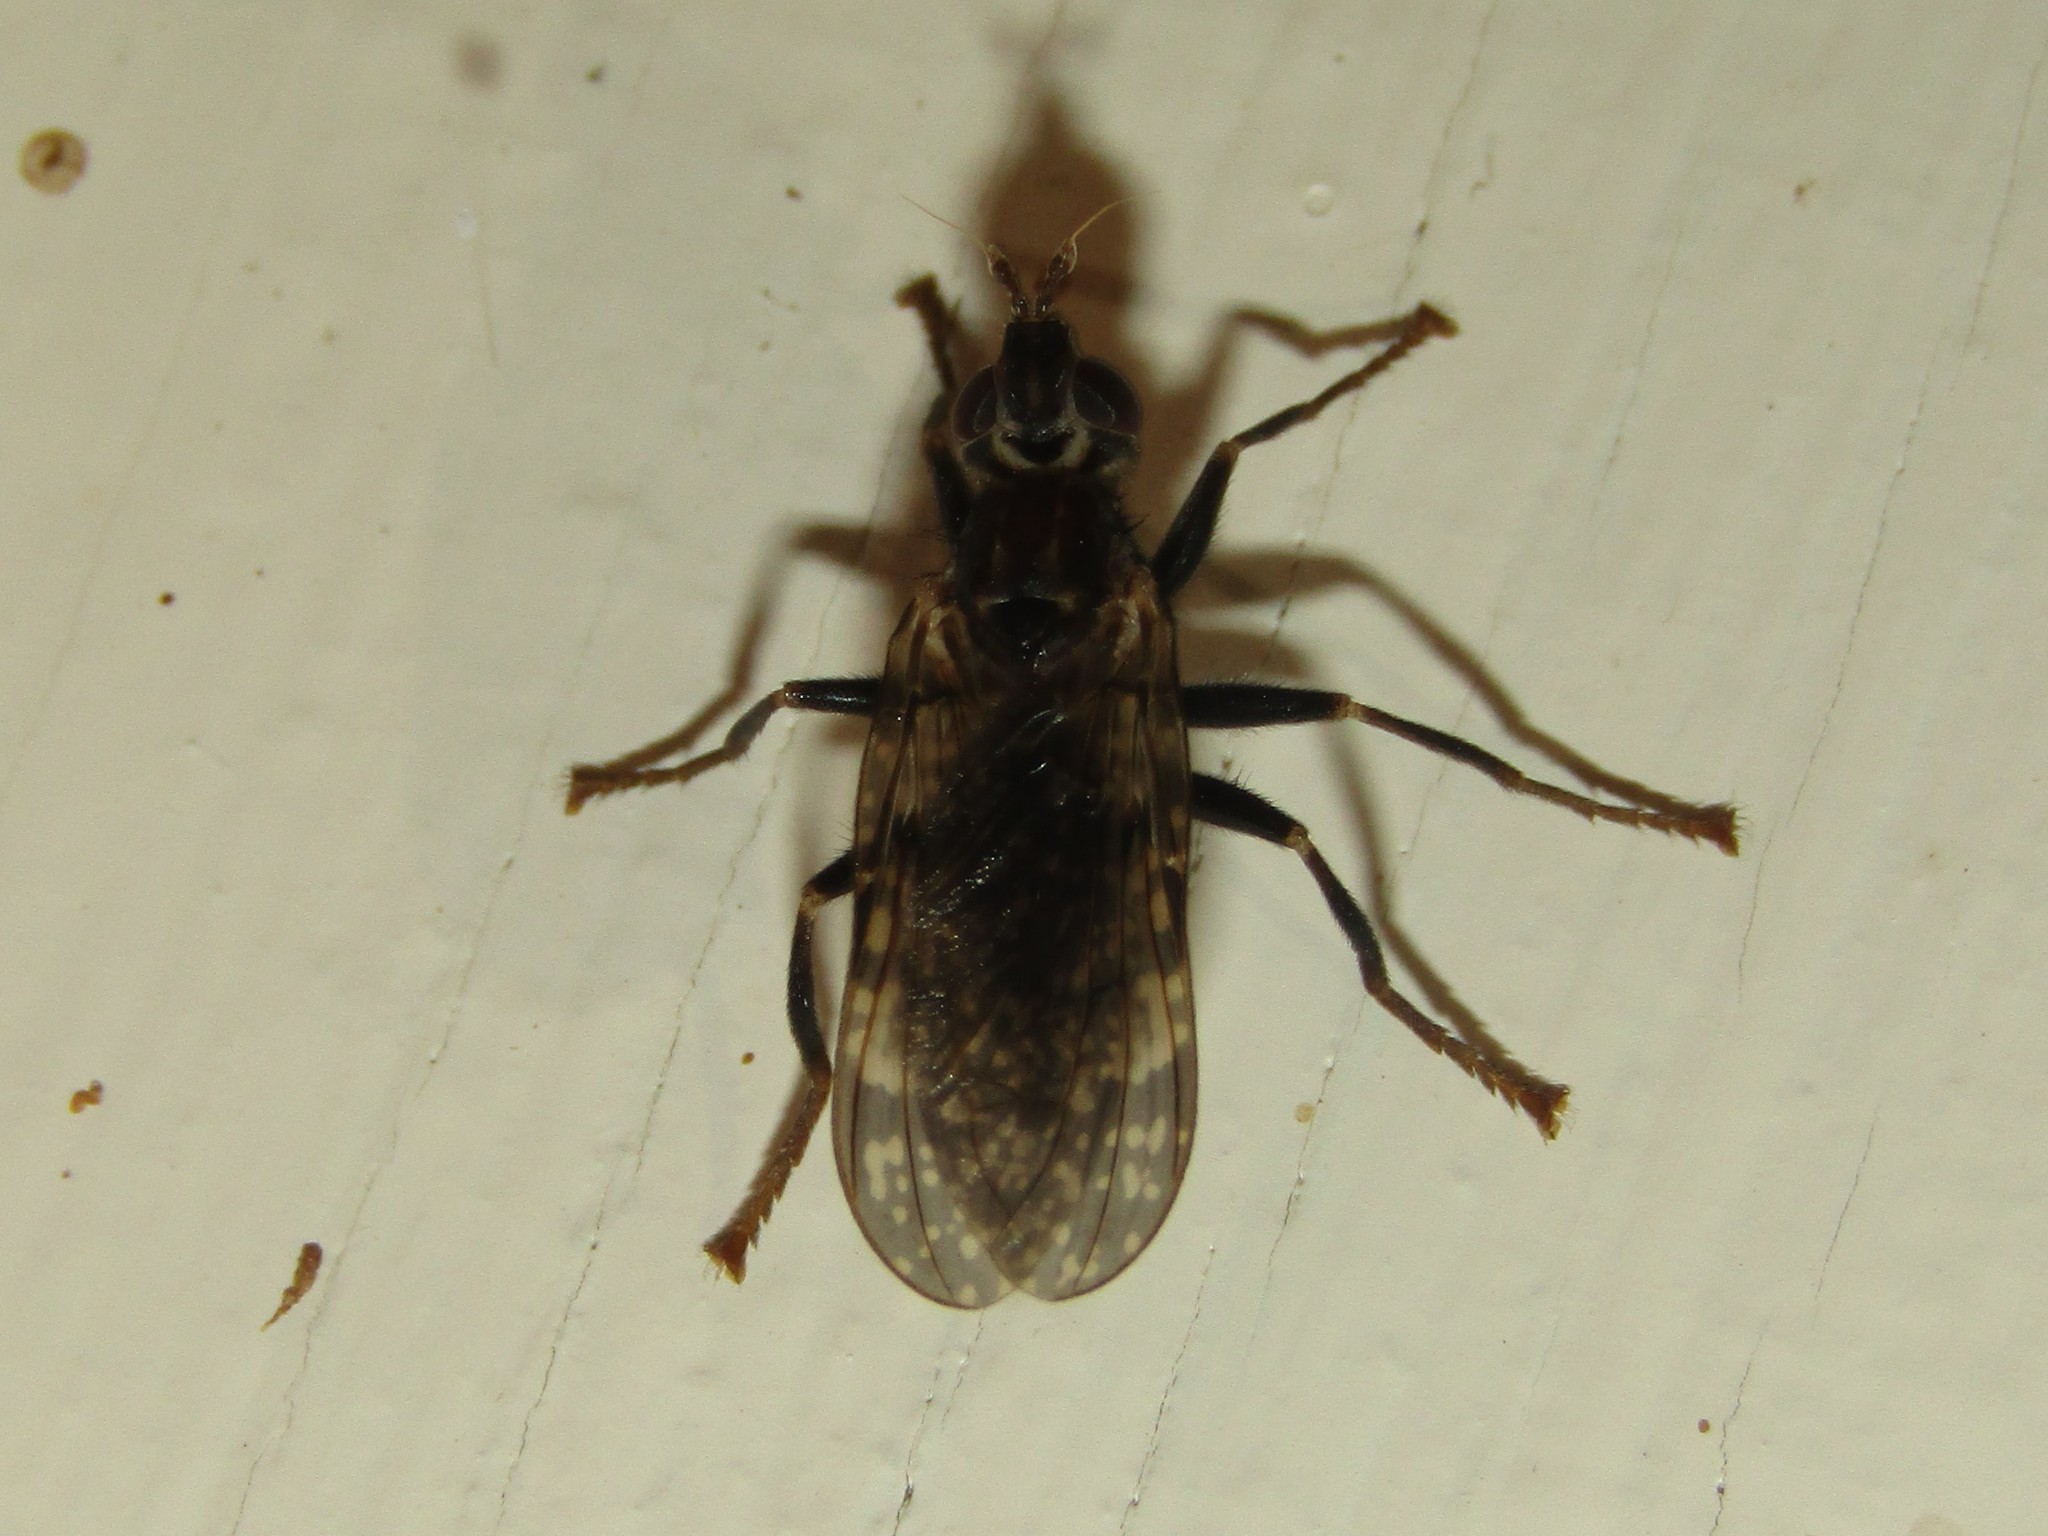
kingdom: Animalia
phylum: Arthropoda
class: Insecta
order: Diptera
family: Pyrgotidae
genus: Pyrgota
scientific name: Pyrgota valida
